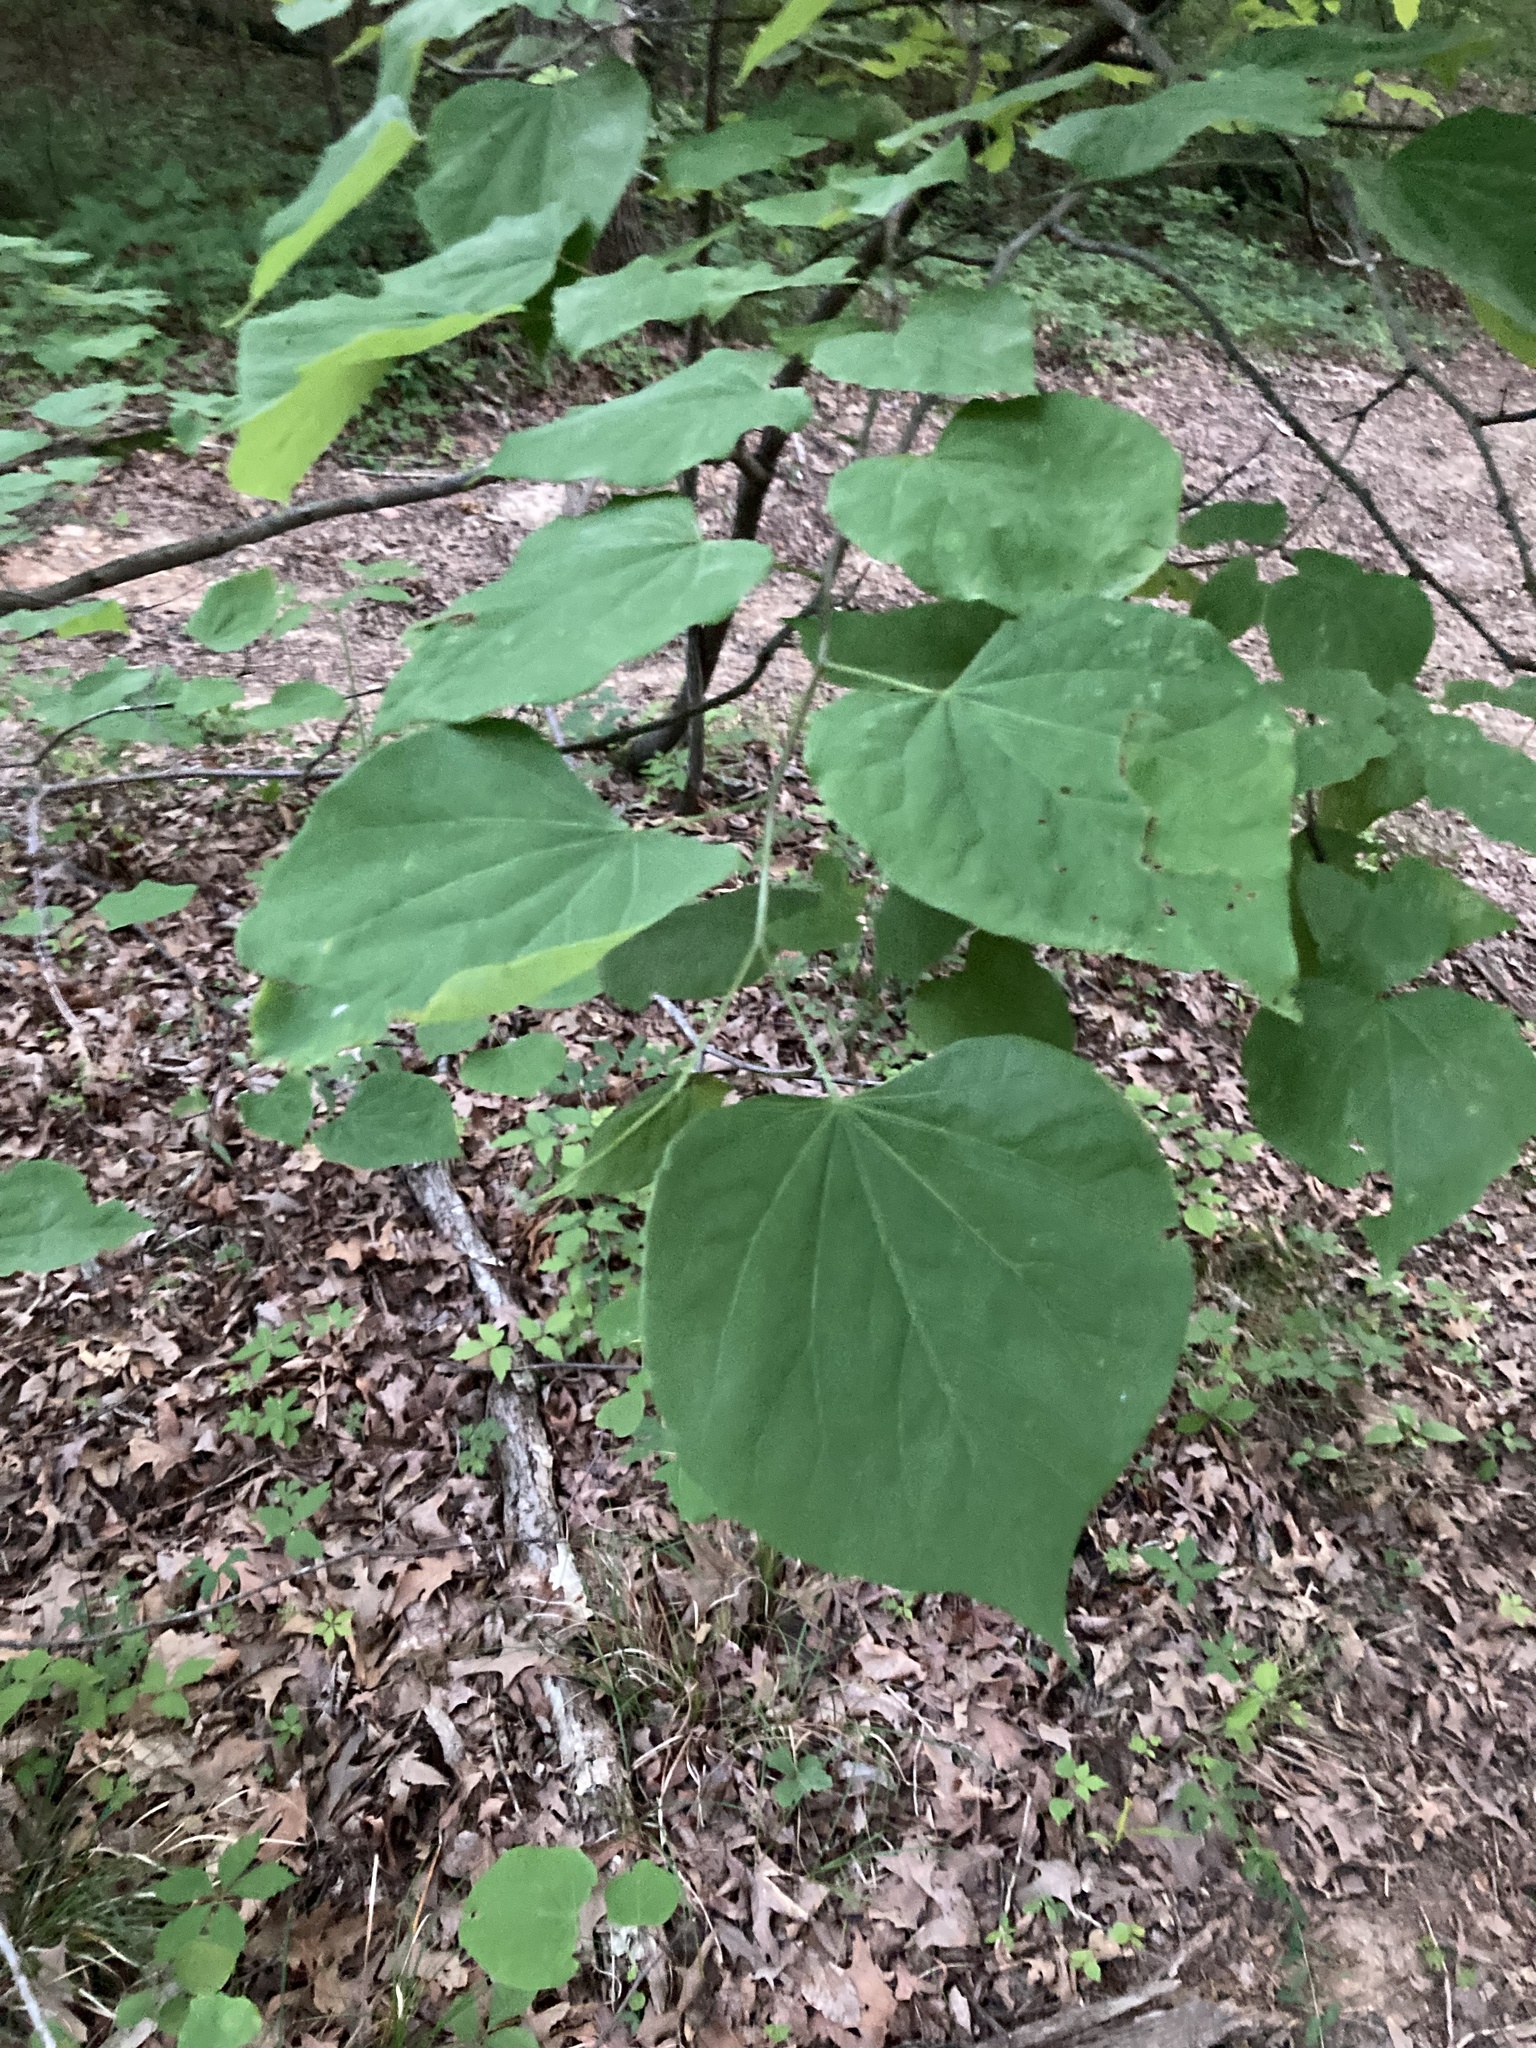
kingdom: Plantae
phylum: Tracheophyta
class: Magnoliopsida
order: Fabales
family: Fabaceae
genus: Cercis
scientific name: Cercis canadensis
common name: Eastern redbud
